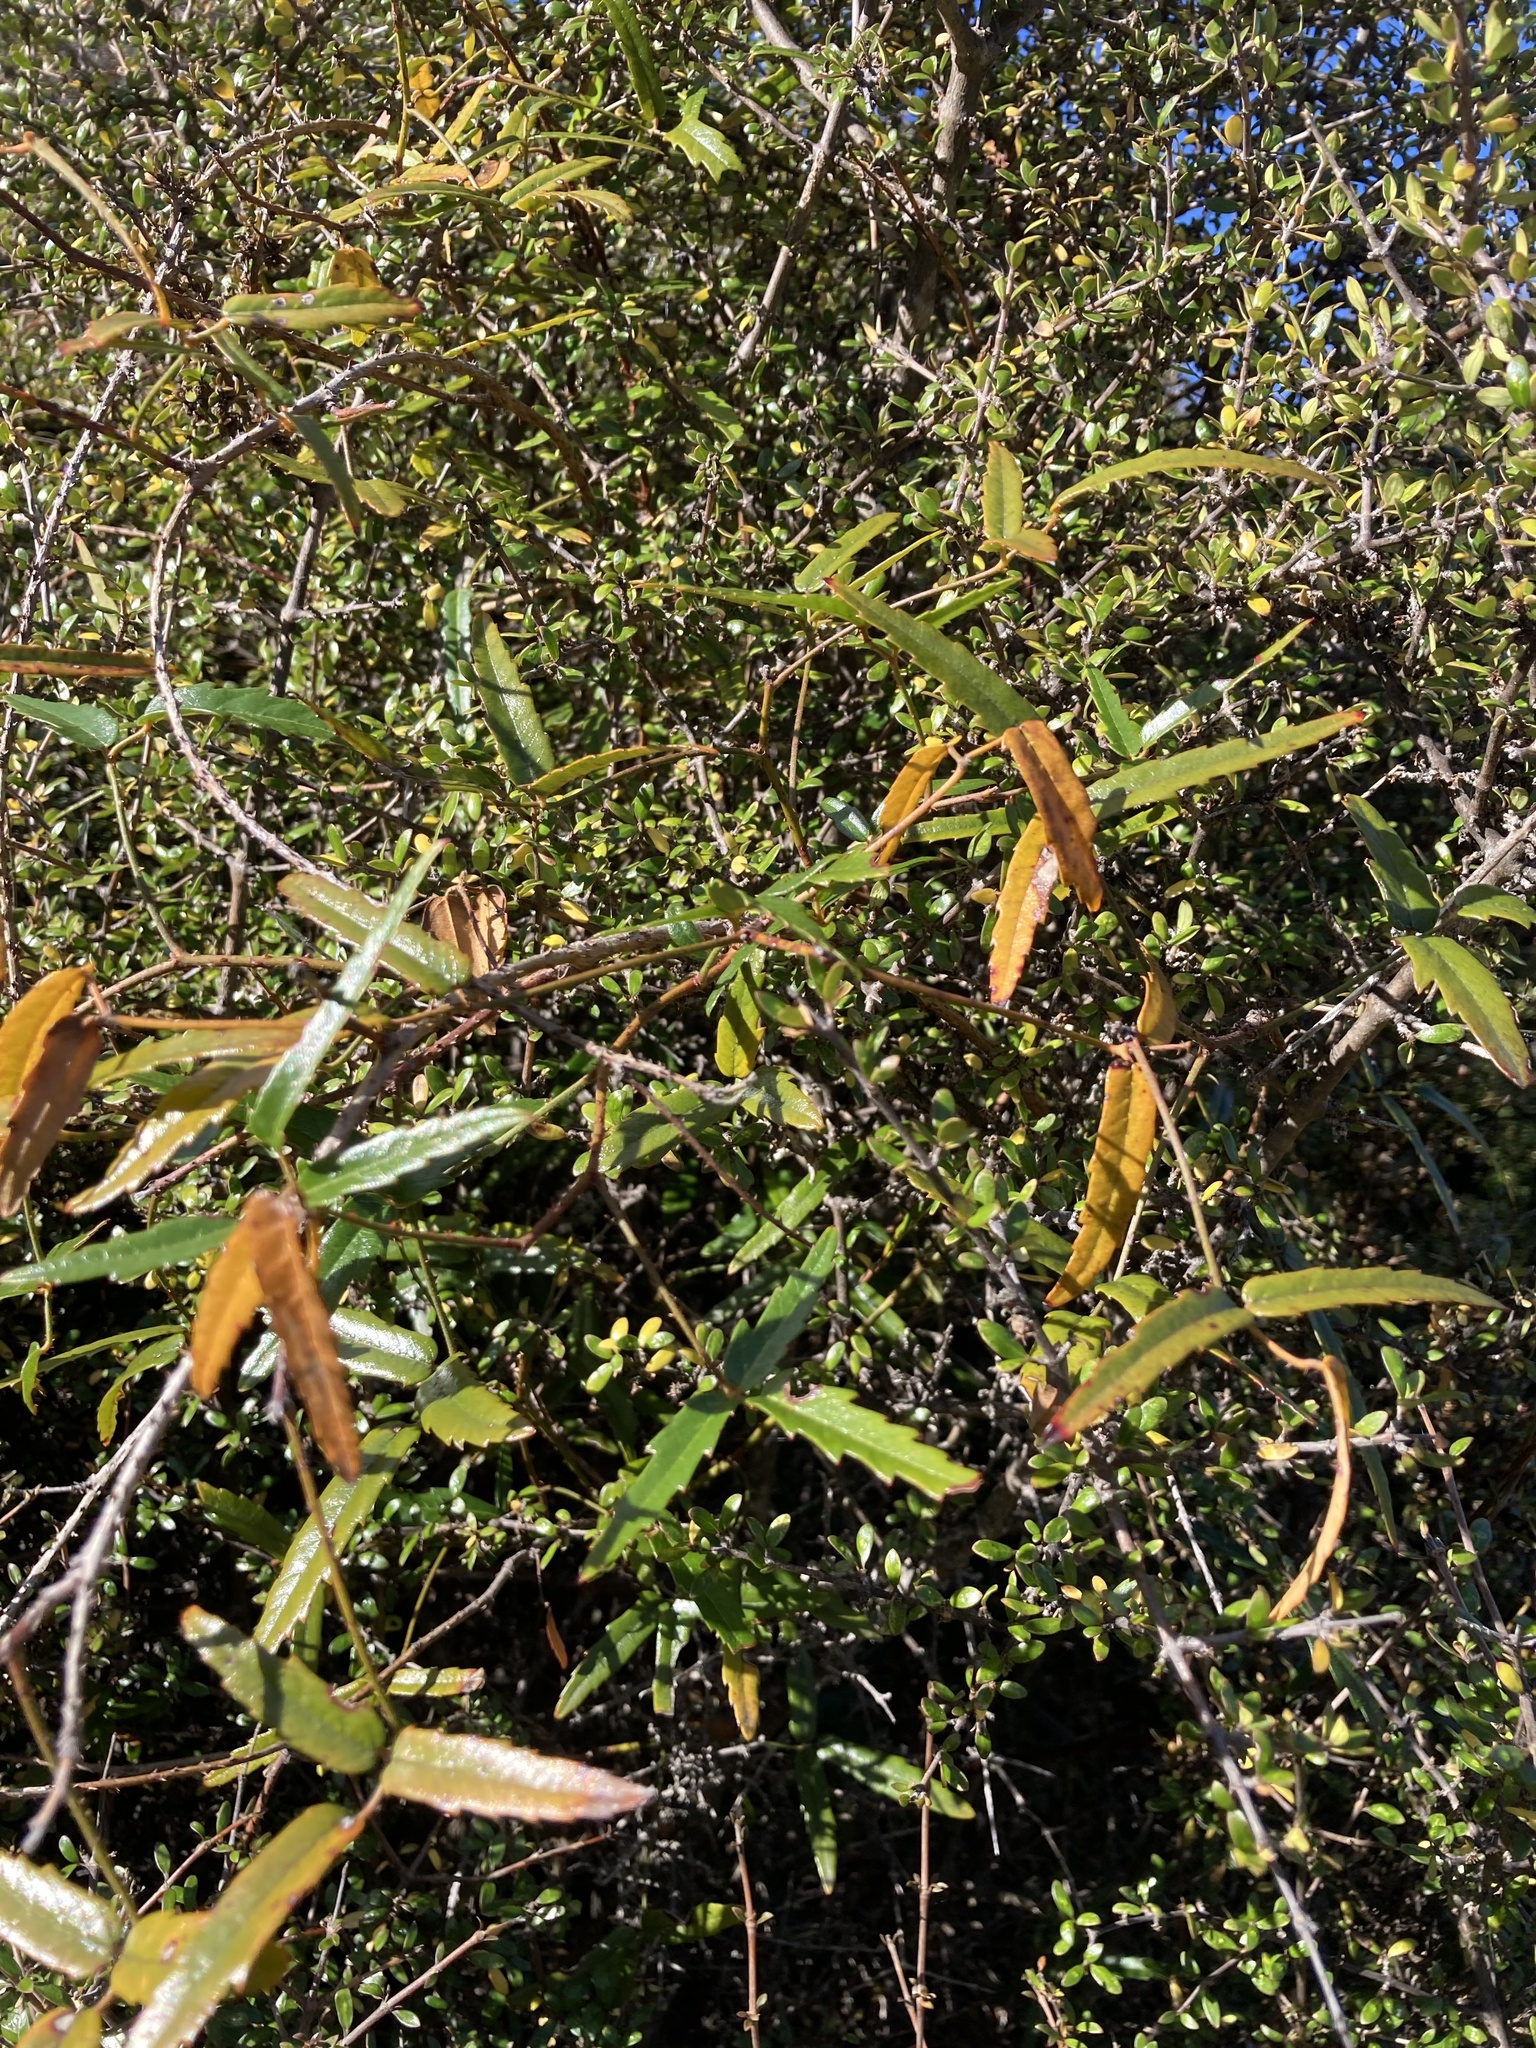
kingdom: Plantae
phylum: Tracheophyta
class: Magnoliopsida
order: Rosales
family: Rosaceae
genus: Rubus
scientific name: Rubus schmidelioides
